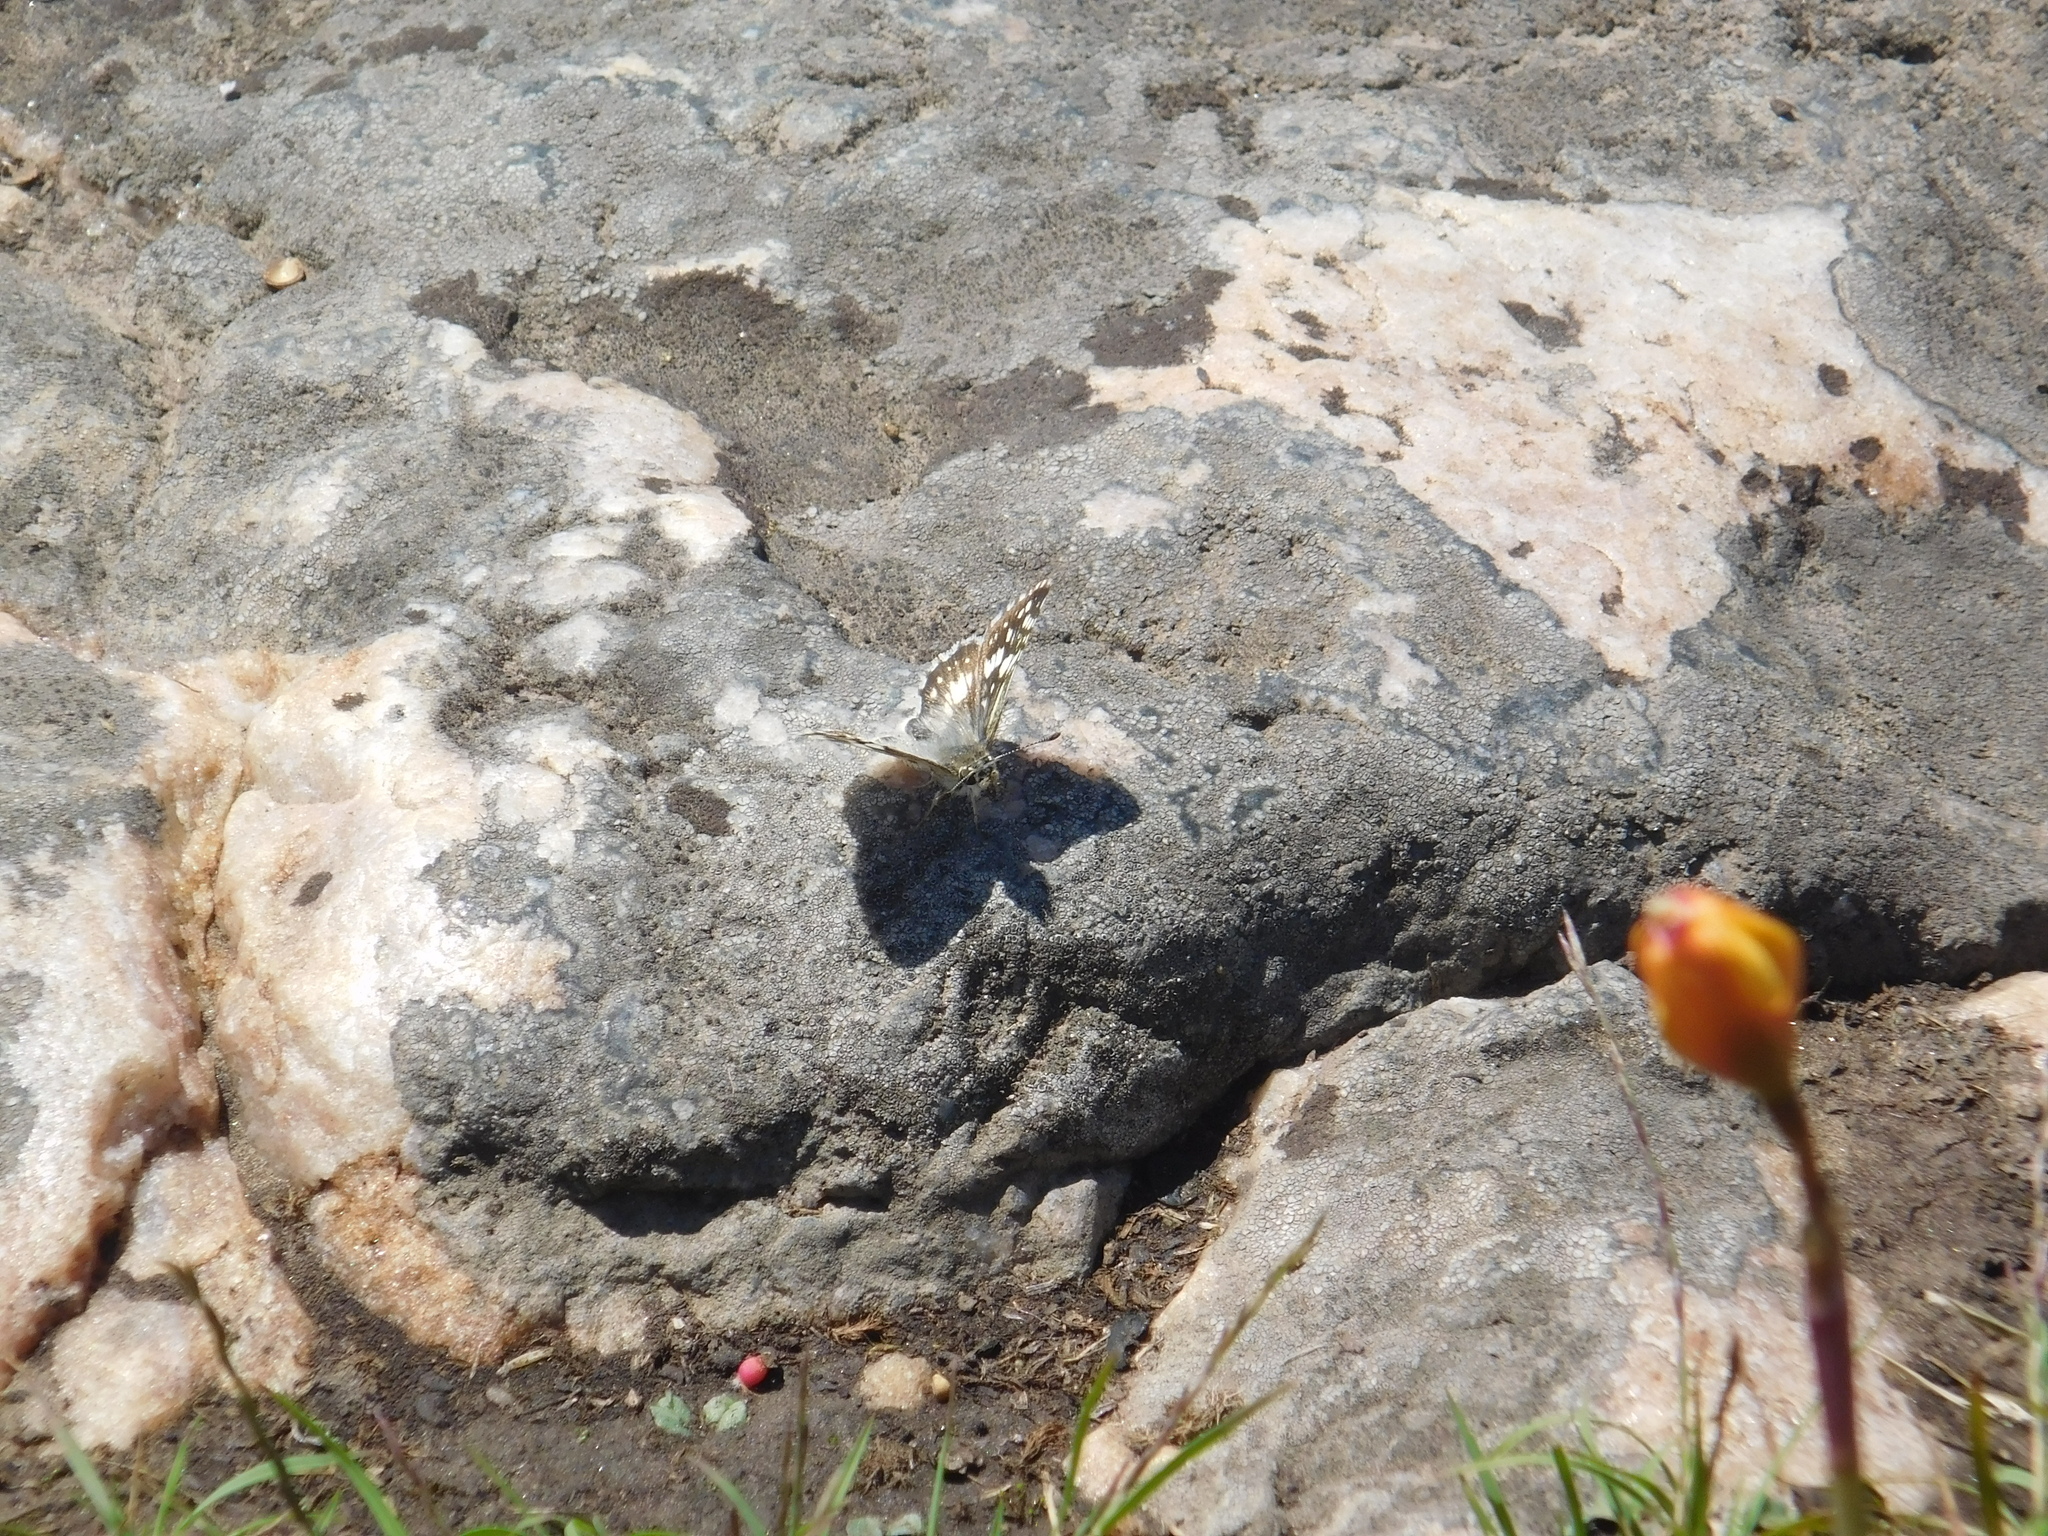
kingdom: Animalia
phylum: Arthropoda
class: Insecta
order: Lepidoptera
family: Hesperiidae
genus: Burnsius
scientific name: Burnsius orcynoides
